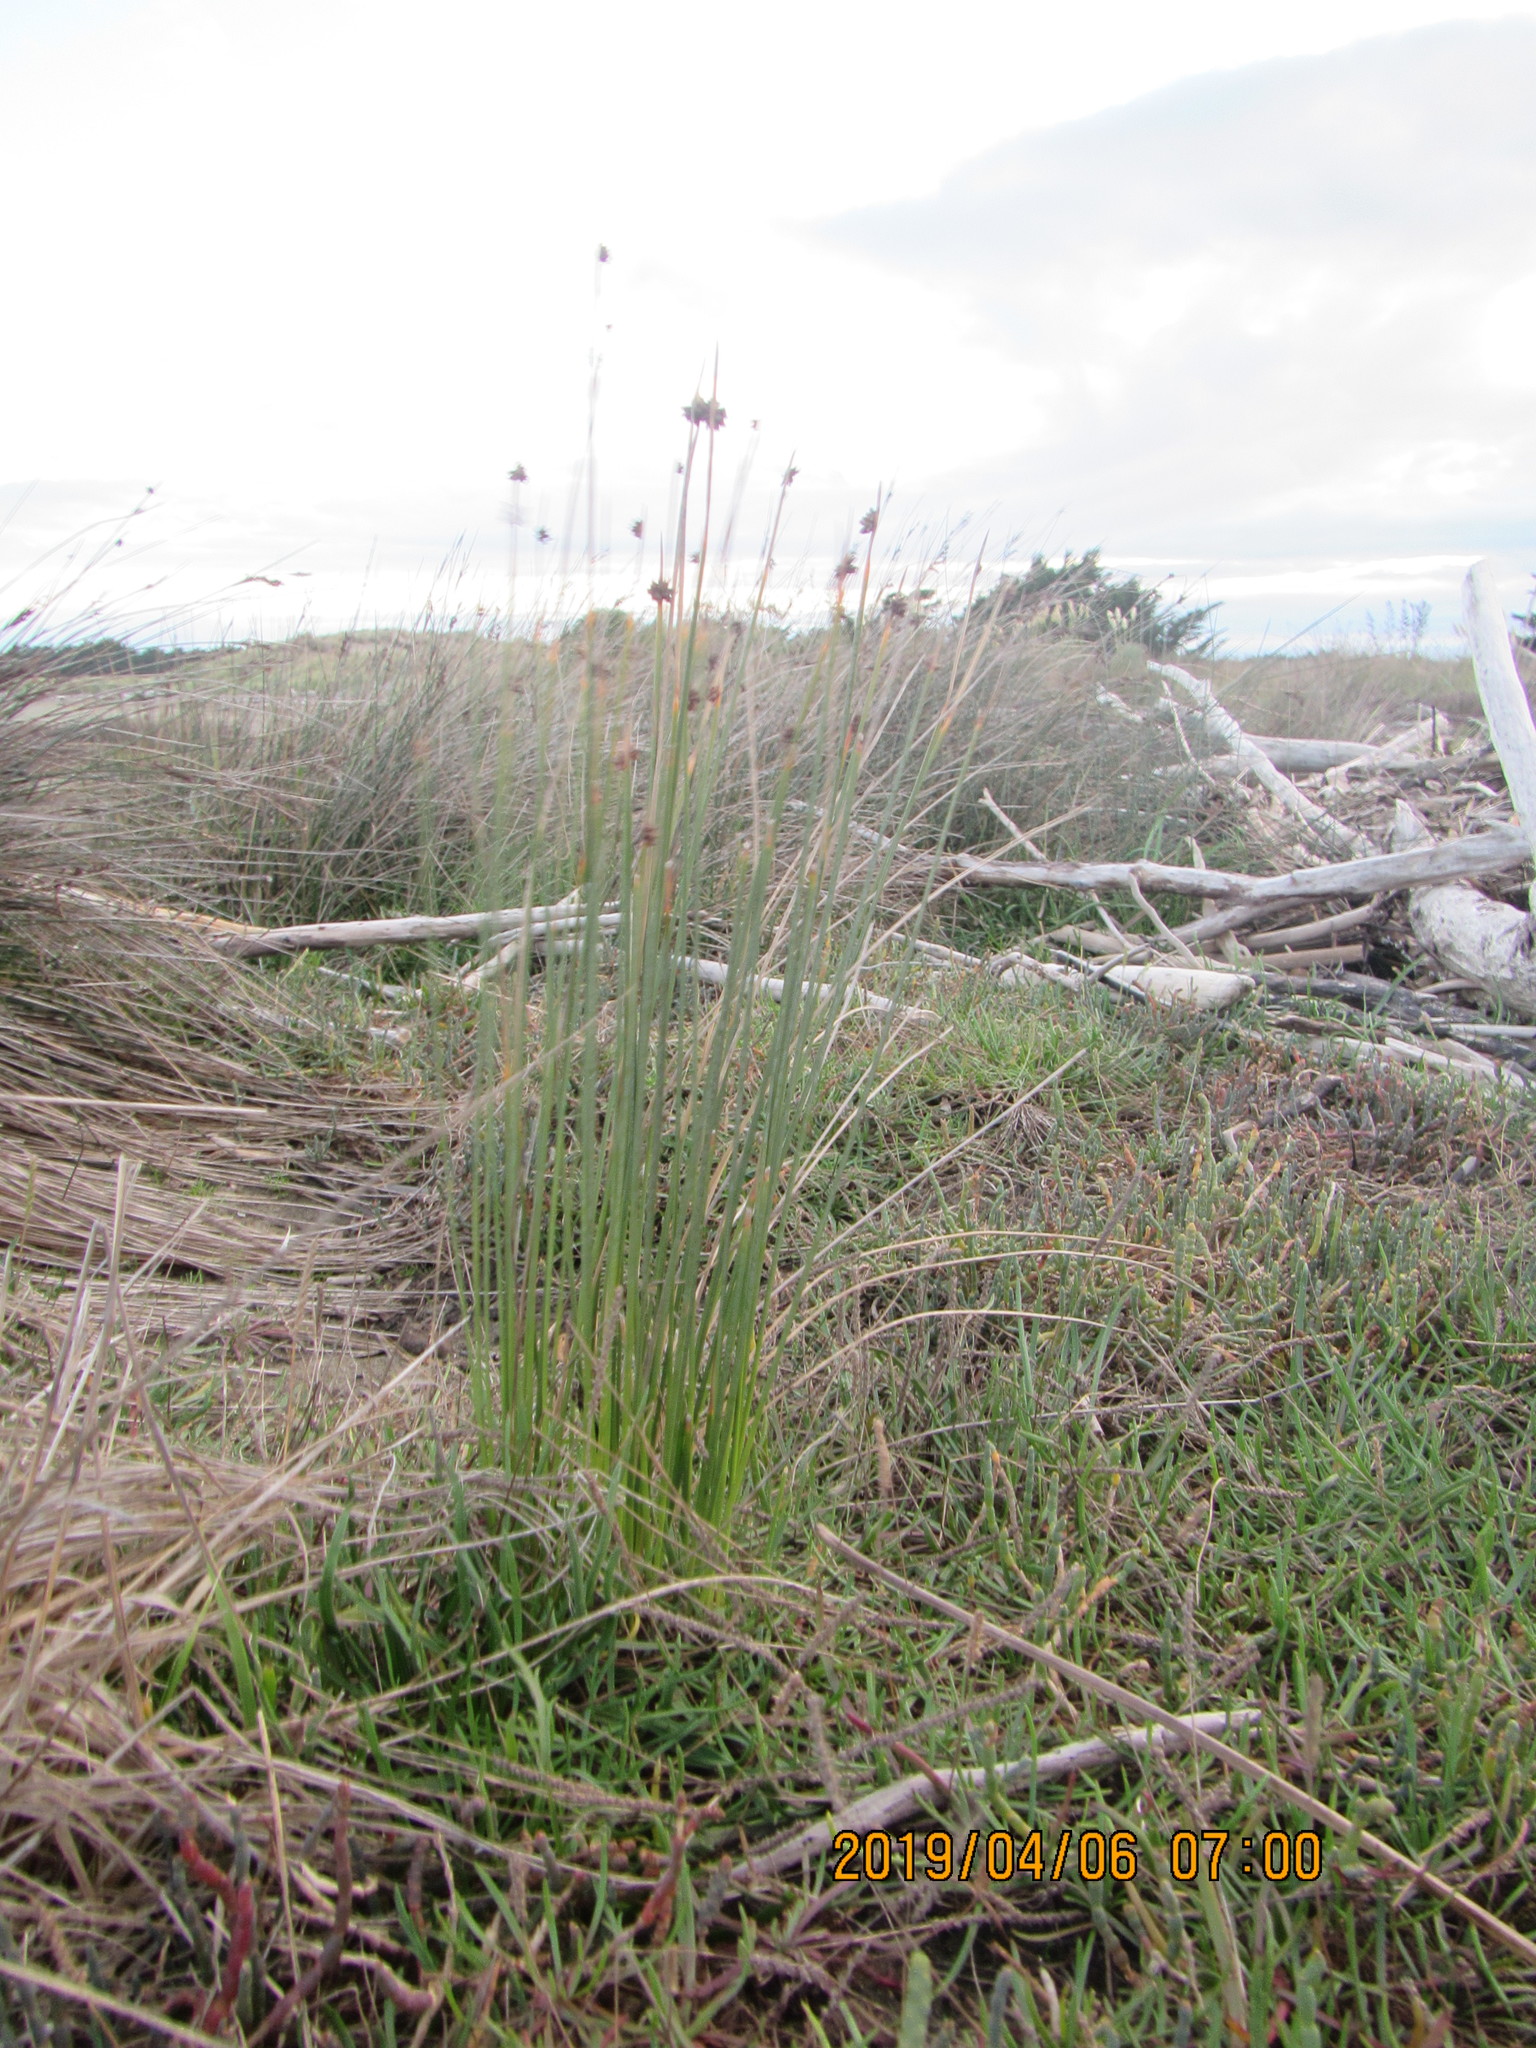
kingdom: Plantae
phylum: Tracheophyta
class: Liliopsida
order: Poales
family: Cyperaceae
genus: Ficinia
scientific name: Ficinia nodosa
